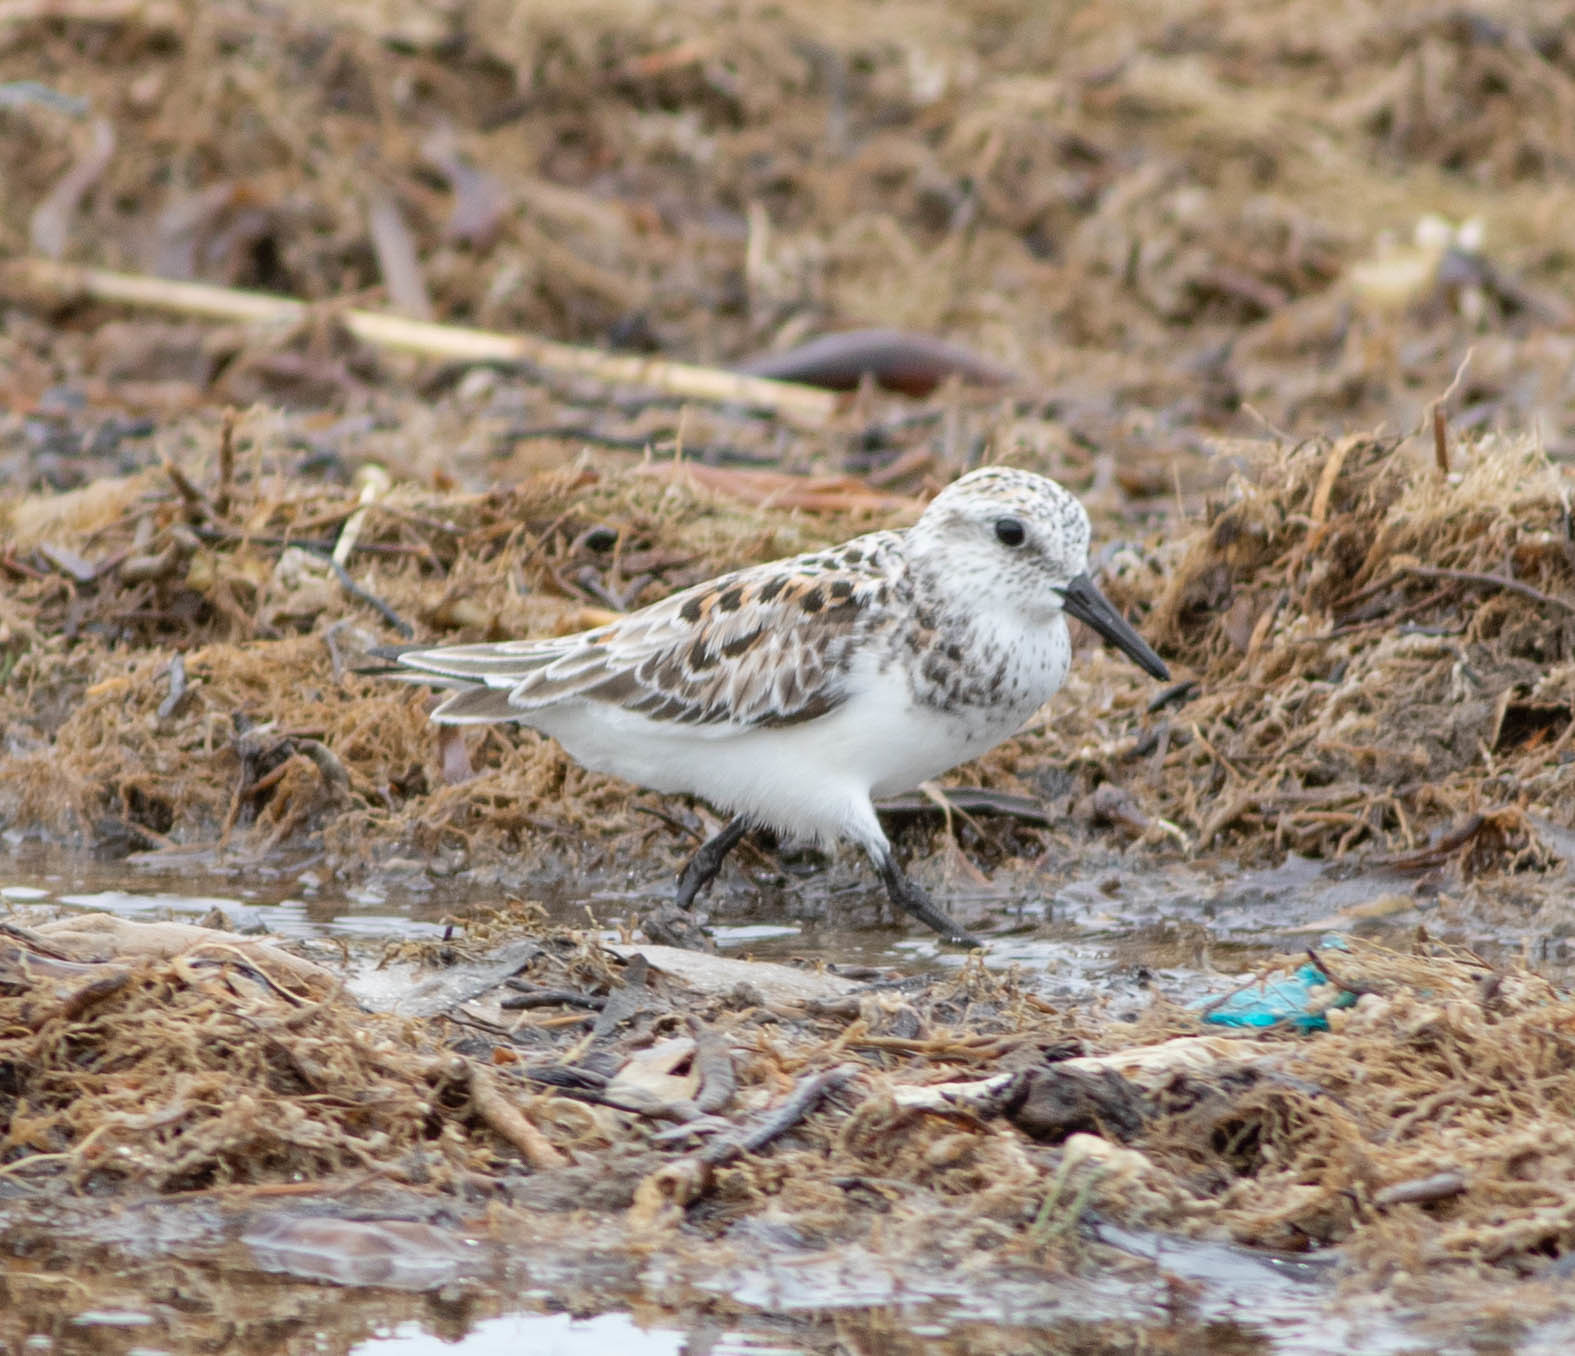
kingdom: Animalia
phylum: Chordata
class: Aves
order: Charadriiformes
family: Scolopacidae
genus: Calidris
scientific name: Calidris alba
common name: Sanderling
